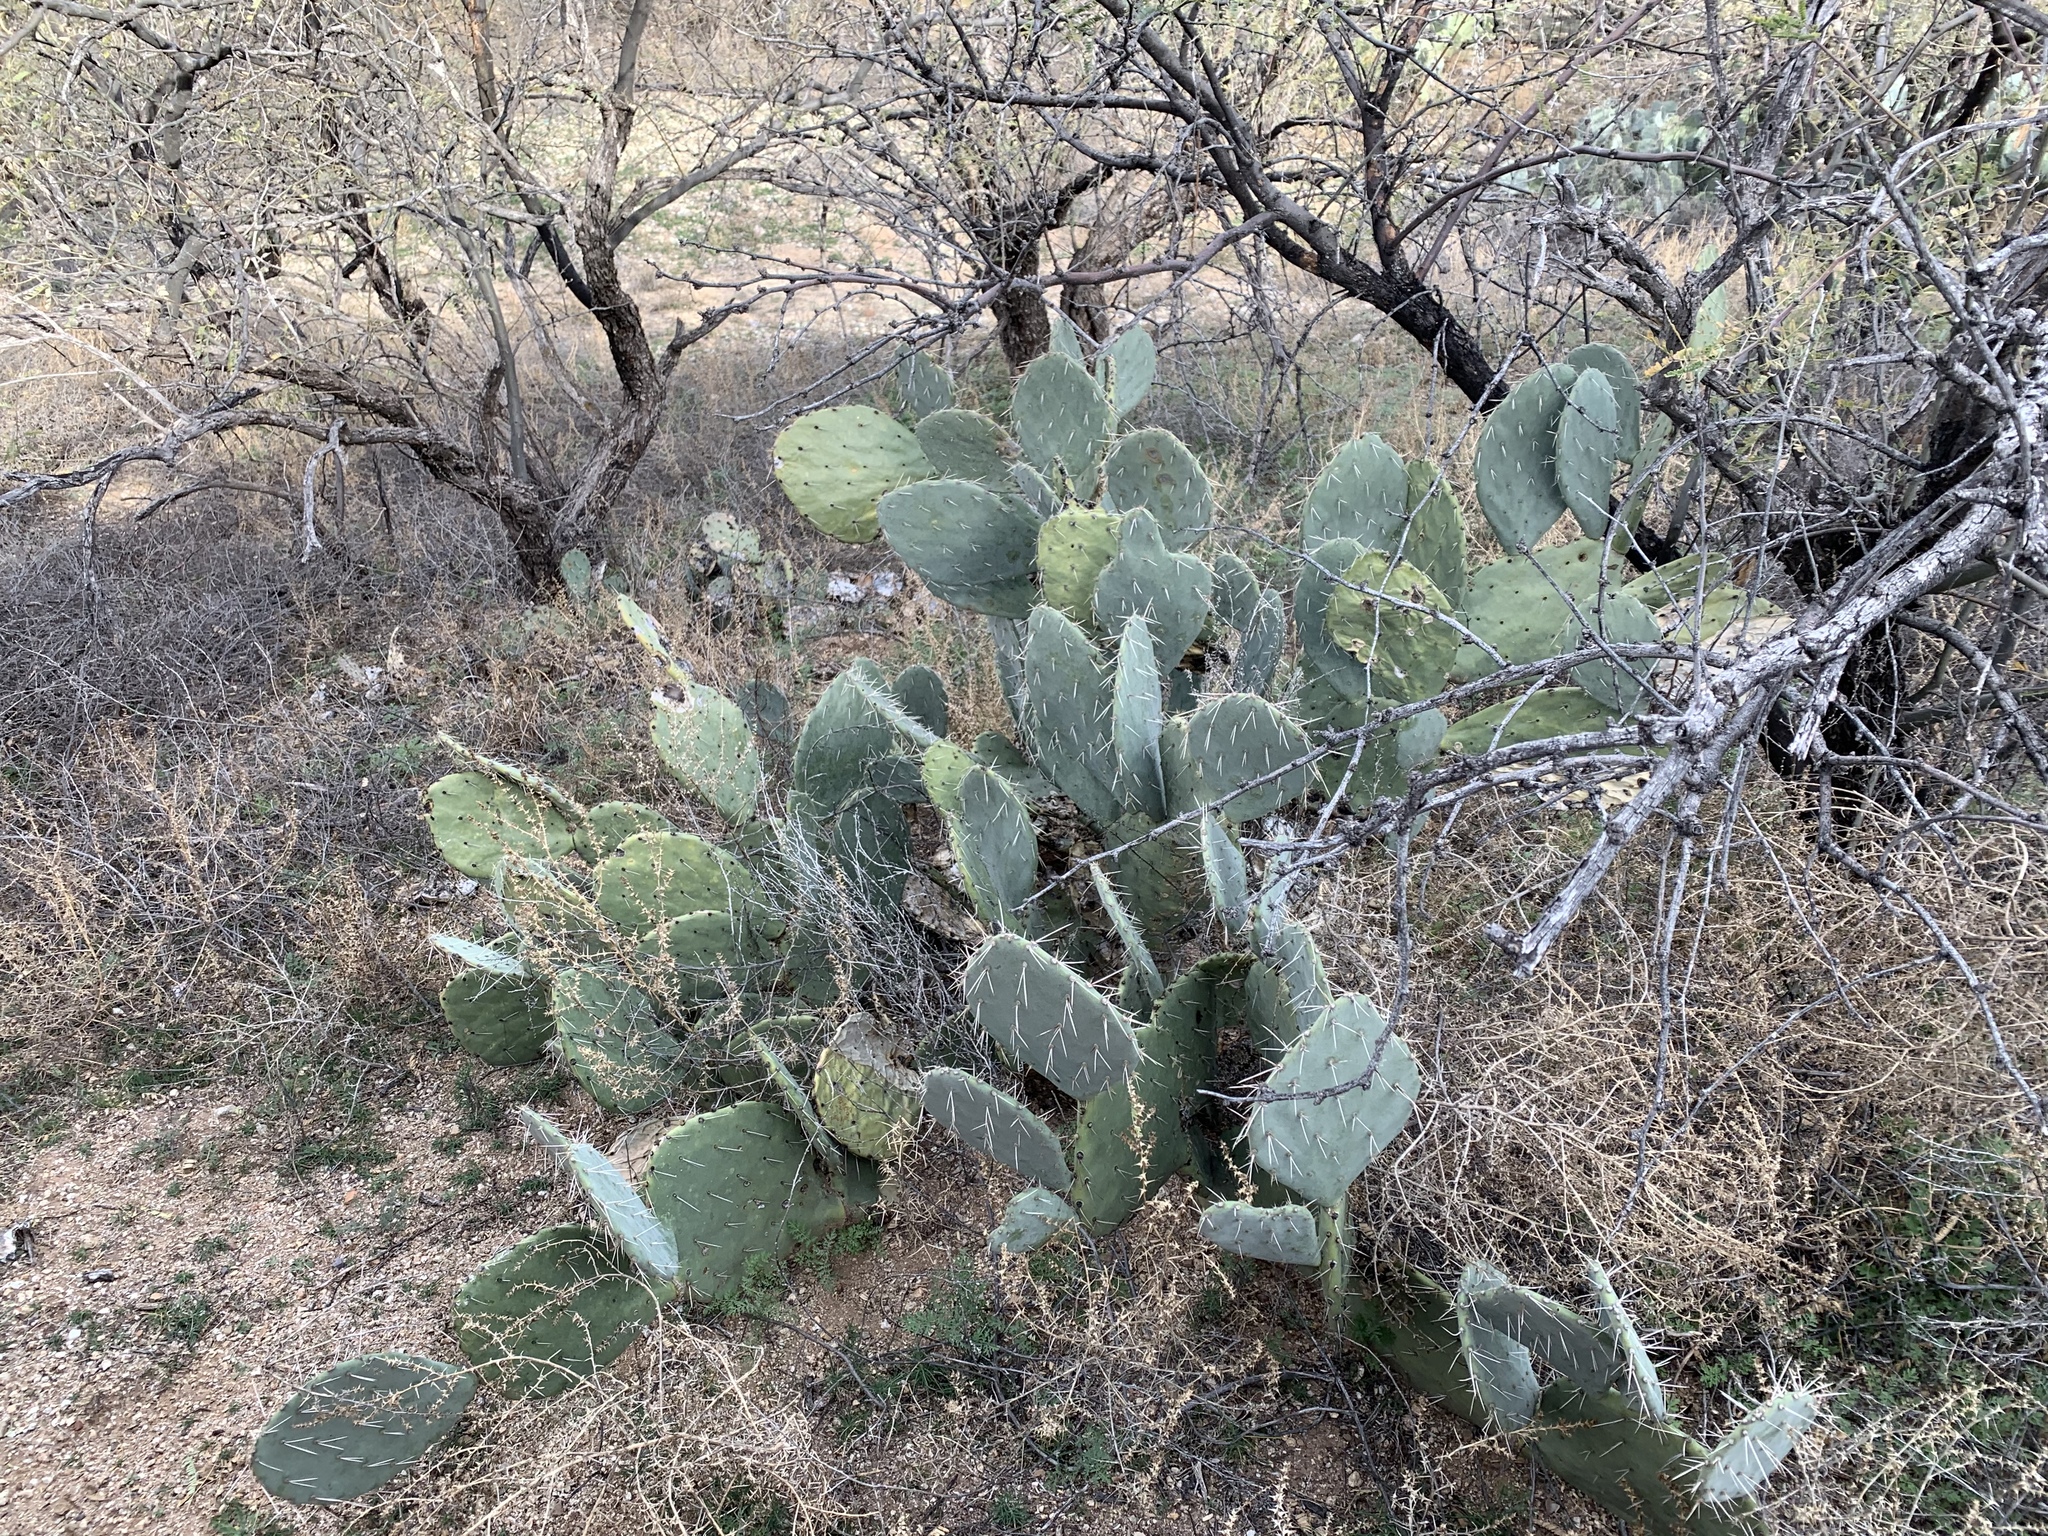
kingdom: Plantae
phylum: Tracheophyta
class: Magnoliopsida
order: Caryophyllales
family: Cactaceae
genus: Opuntia
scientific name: Opuntia engelmannii
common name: Cactus-apple
